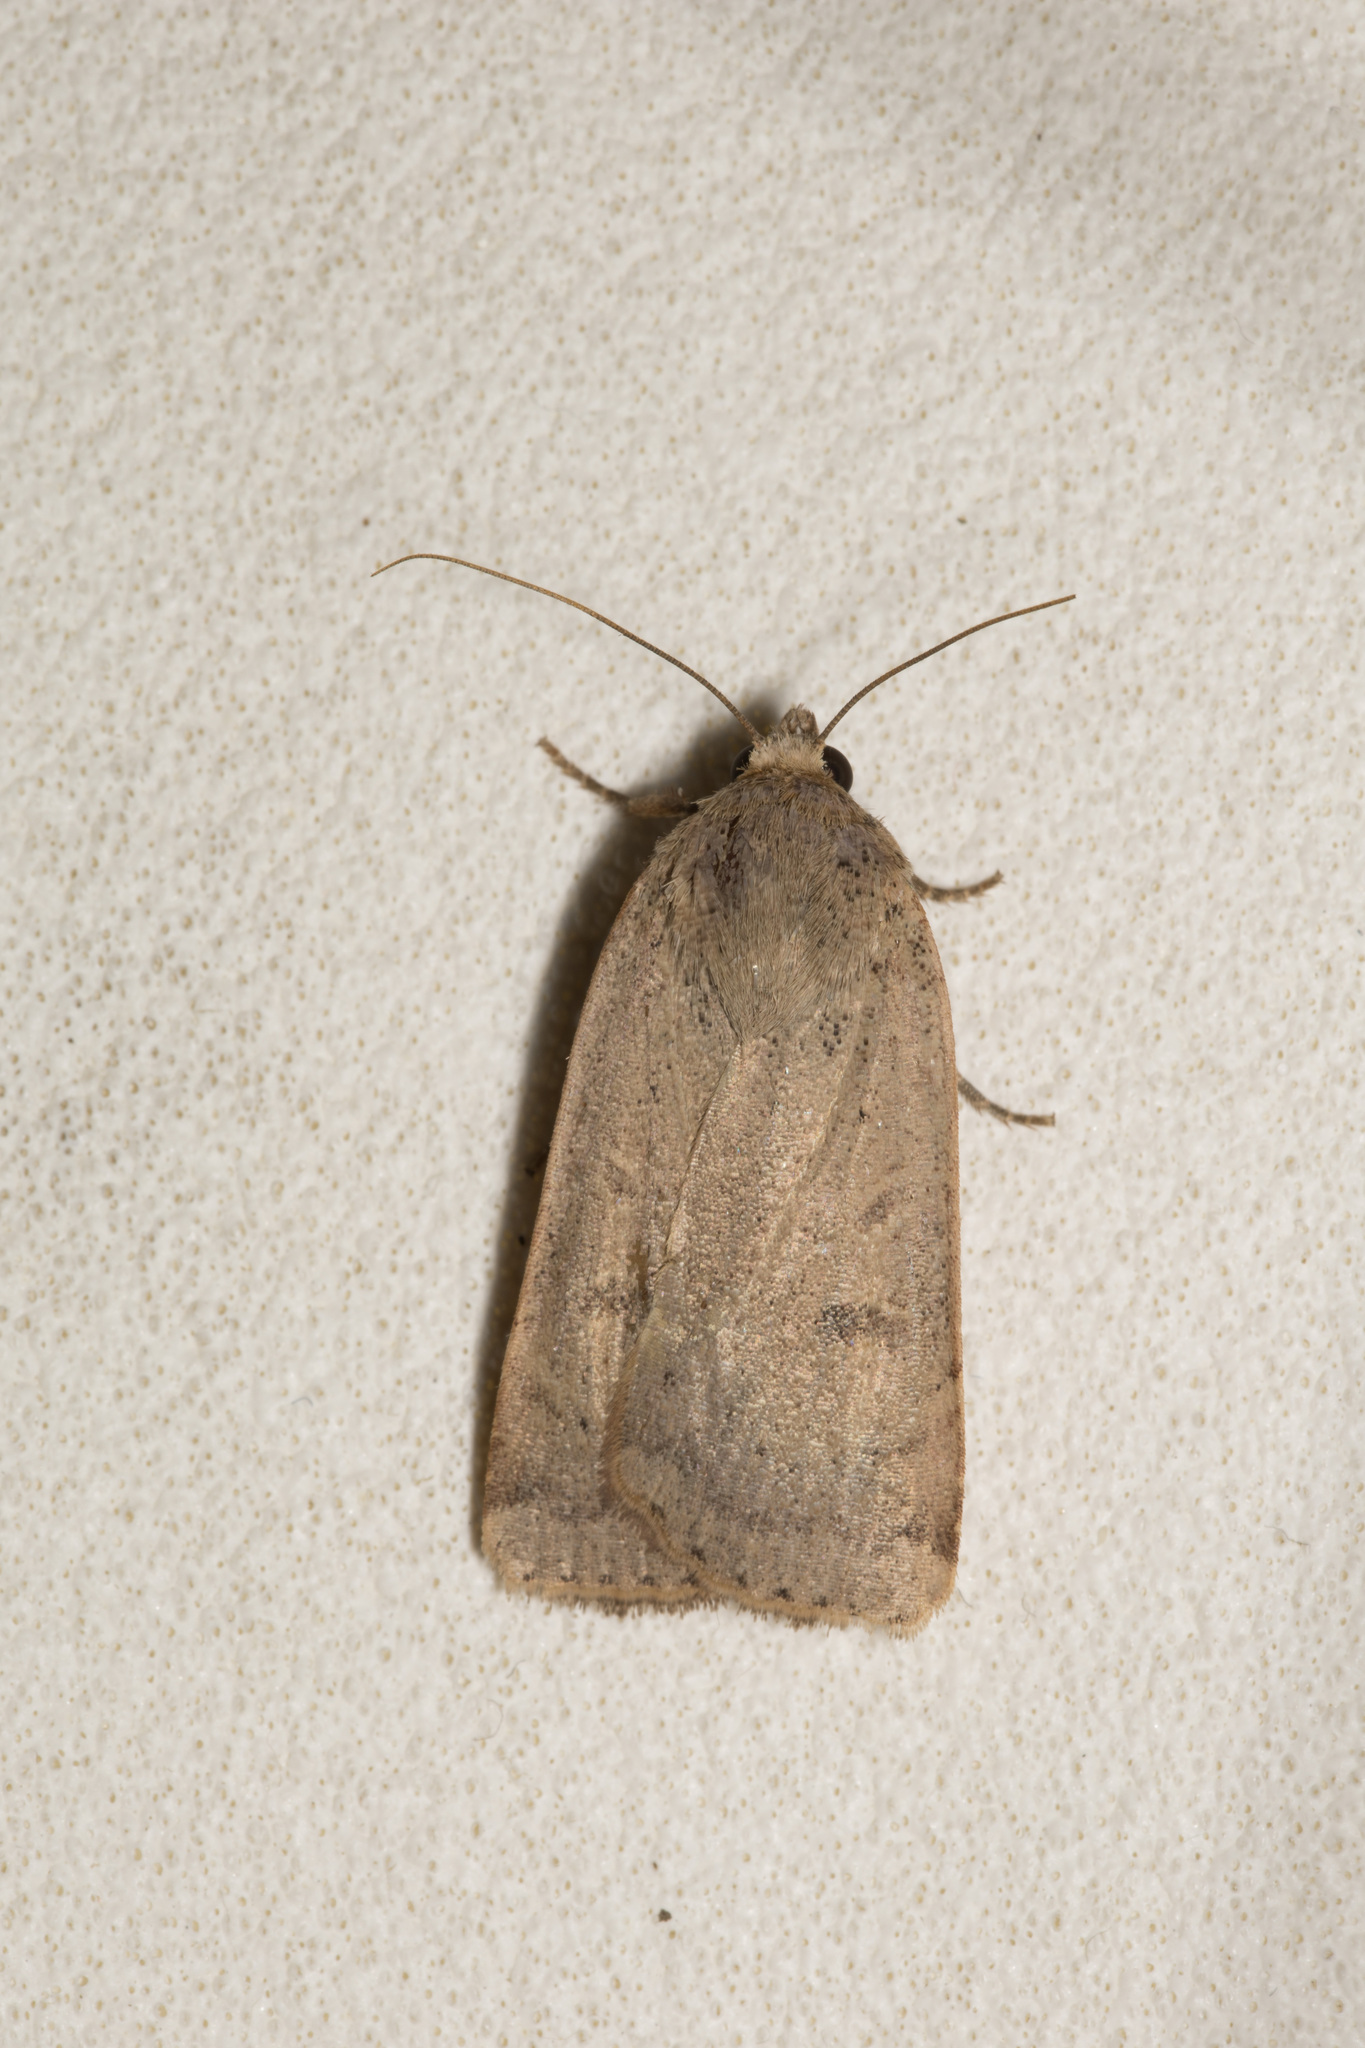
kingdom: Animalia
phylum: Arthropoda
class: Insecta
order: Lepidoptera
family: Noctuidae
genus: Noctua
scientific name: Noctua comes
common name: Lesser yellow underwing
